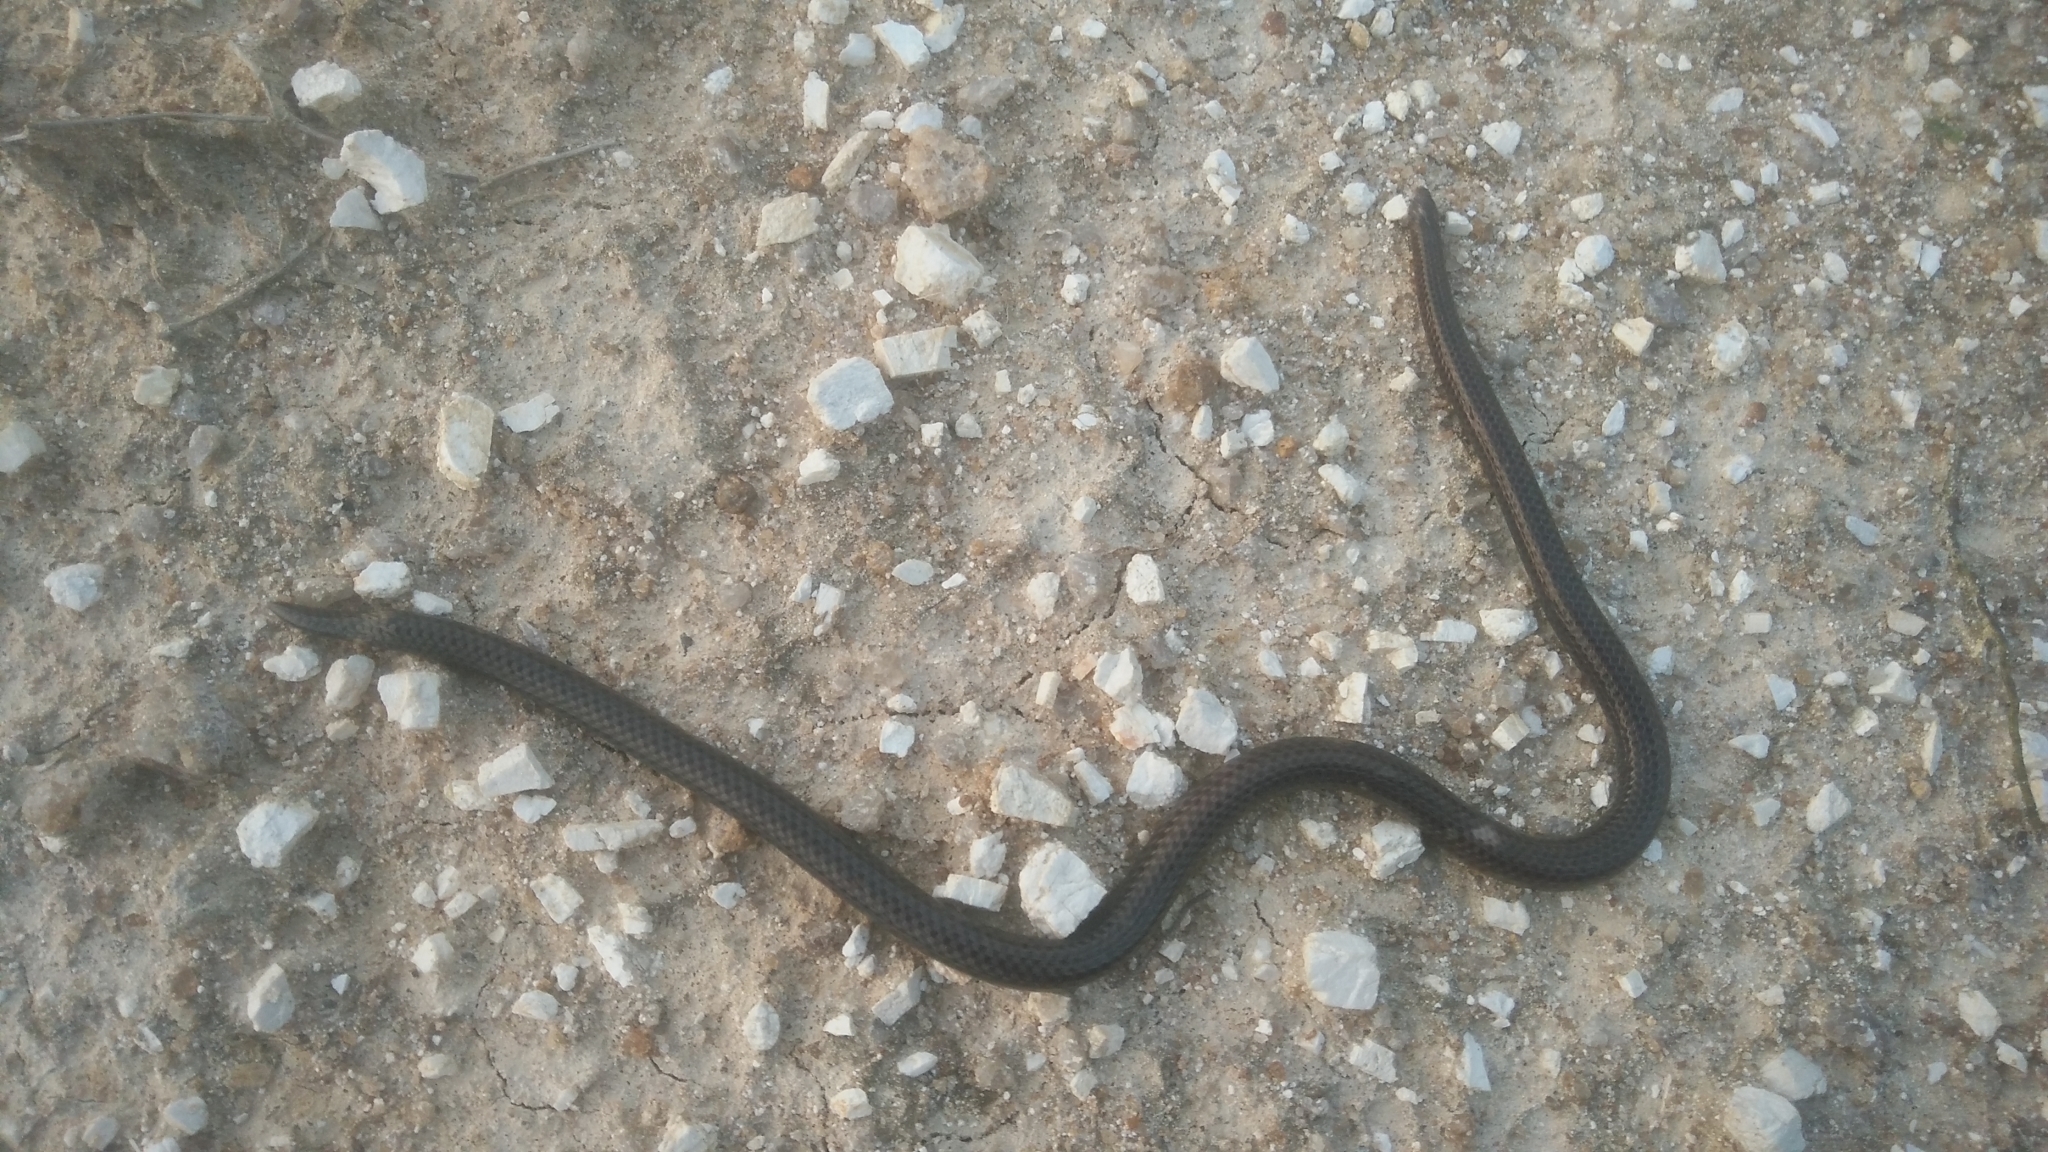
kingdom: Animalia
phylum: Chordata
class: Squamata
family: Uropeltidae
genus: Melanophidium
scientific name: Melanophidium wynaudense
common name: Indian black earth snake
